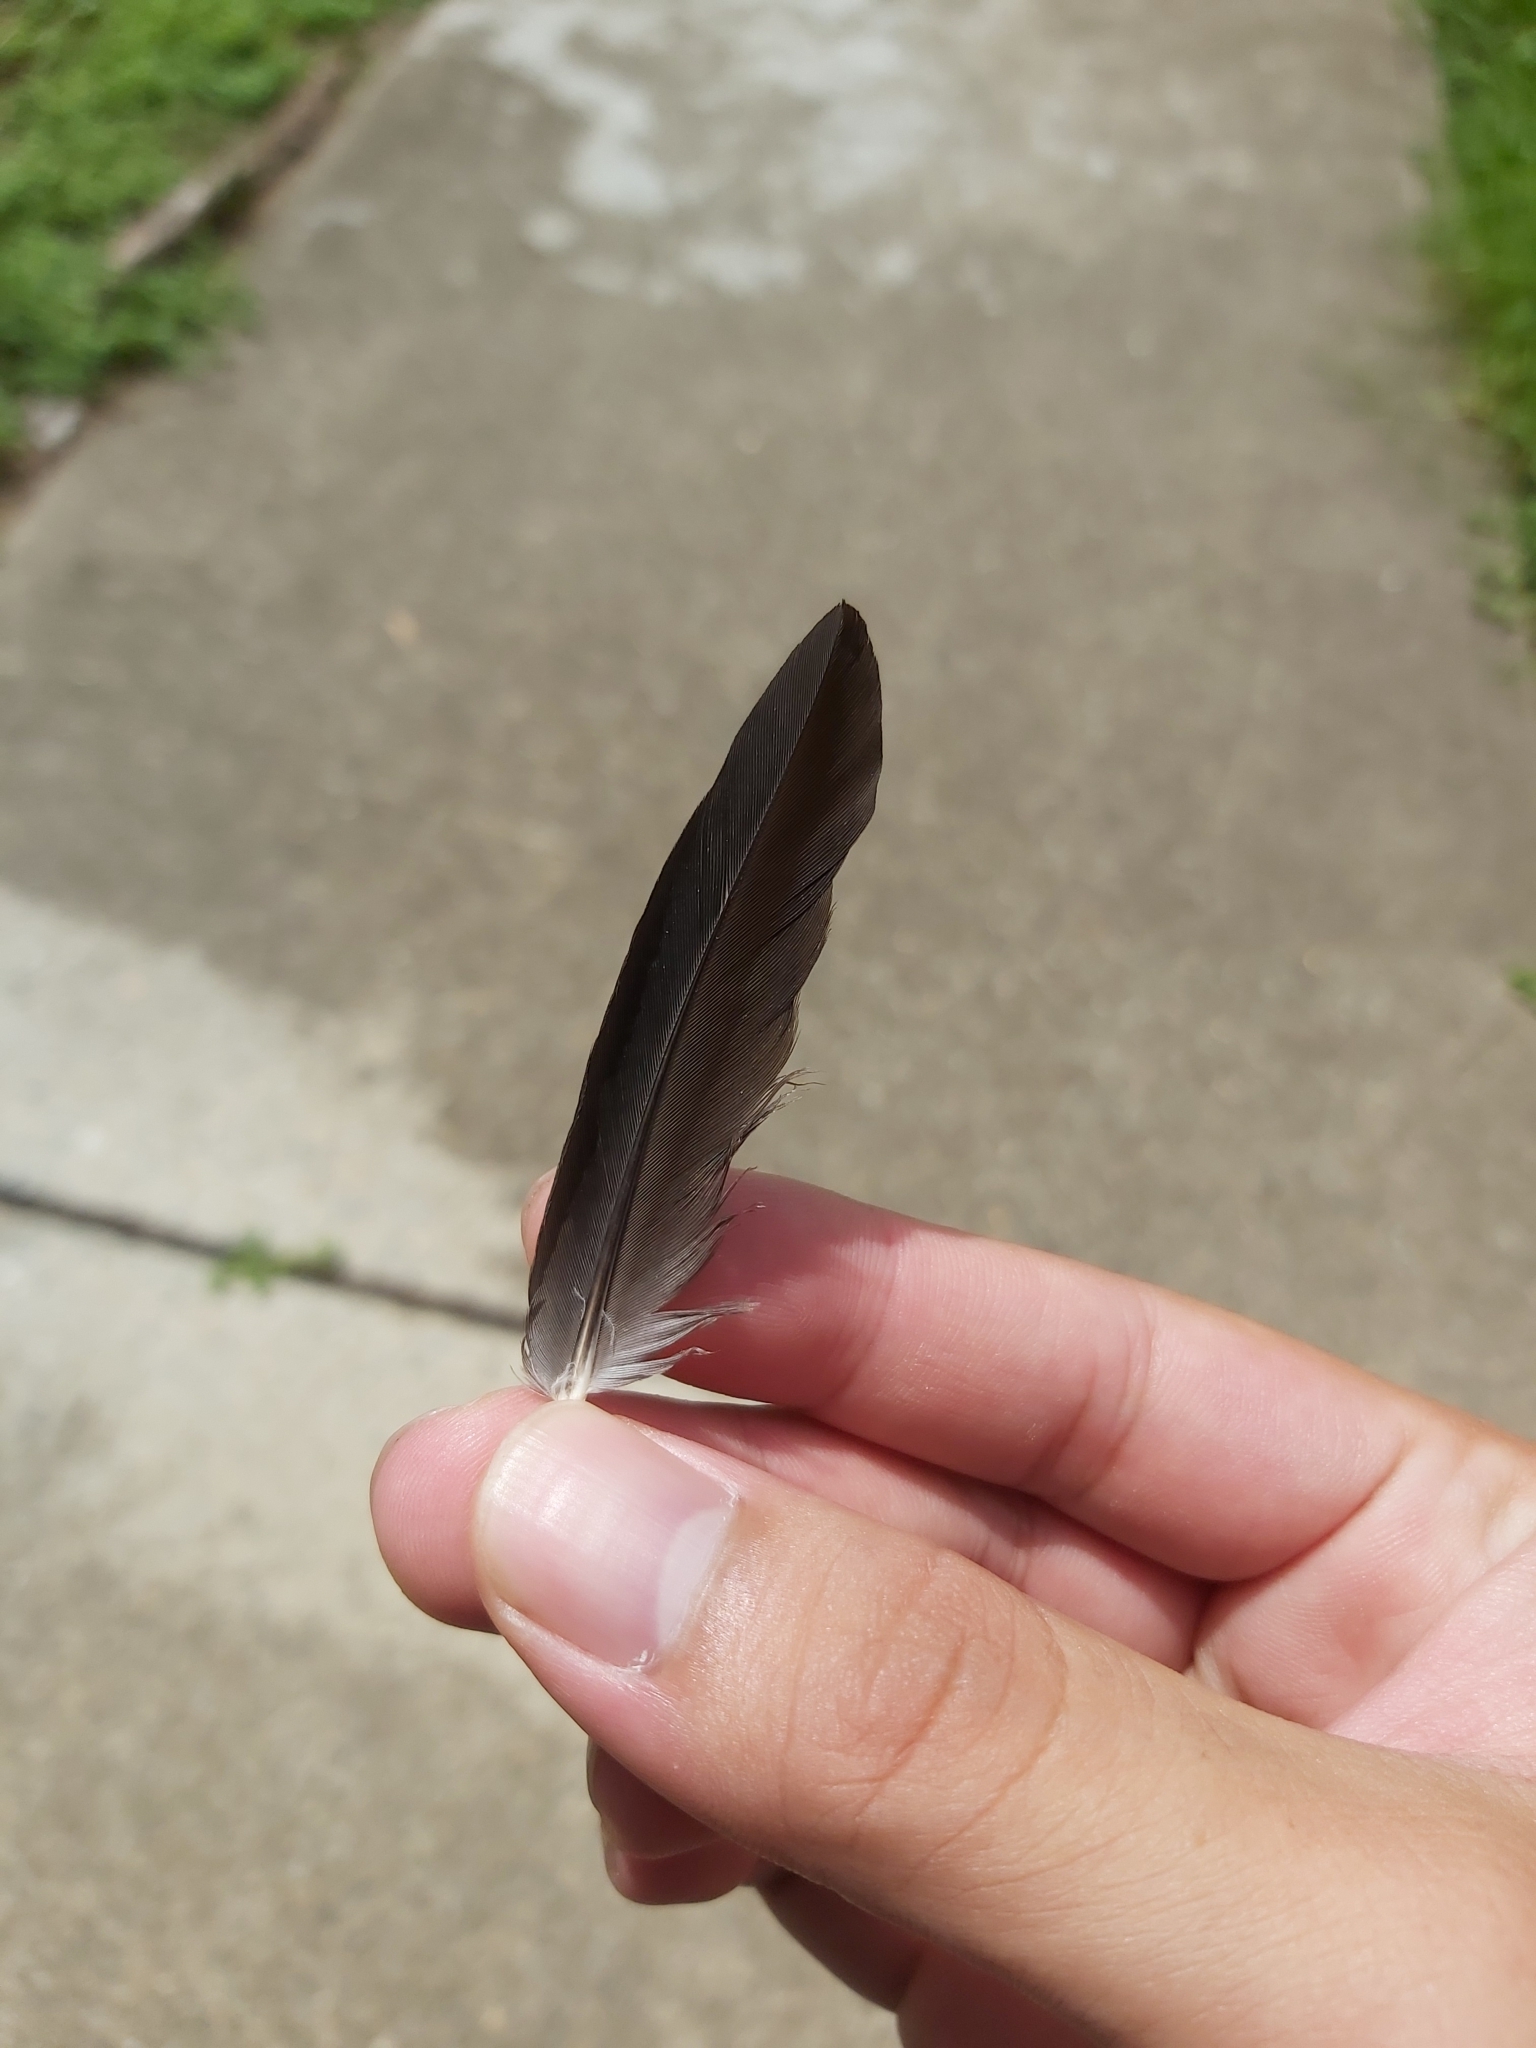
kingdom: Animalia
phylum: Chordata
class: Aves
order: Passeriformes
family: Cracticidae
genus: Gymnorhina
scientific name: Gymnorhina tibicen
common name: Australian magpie
